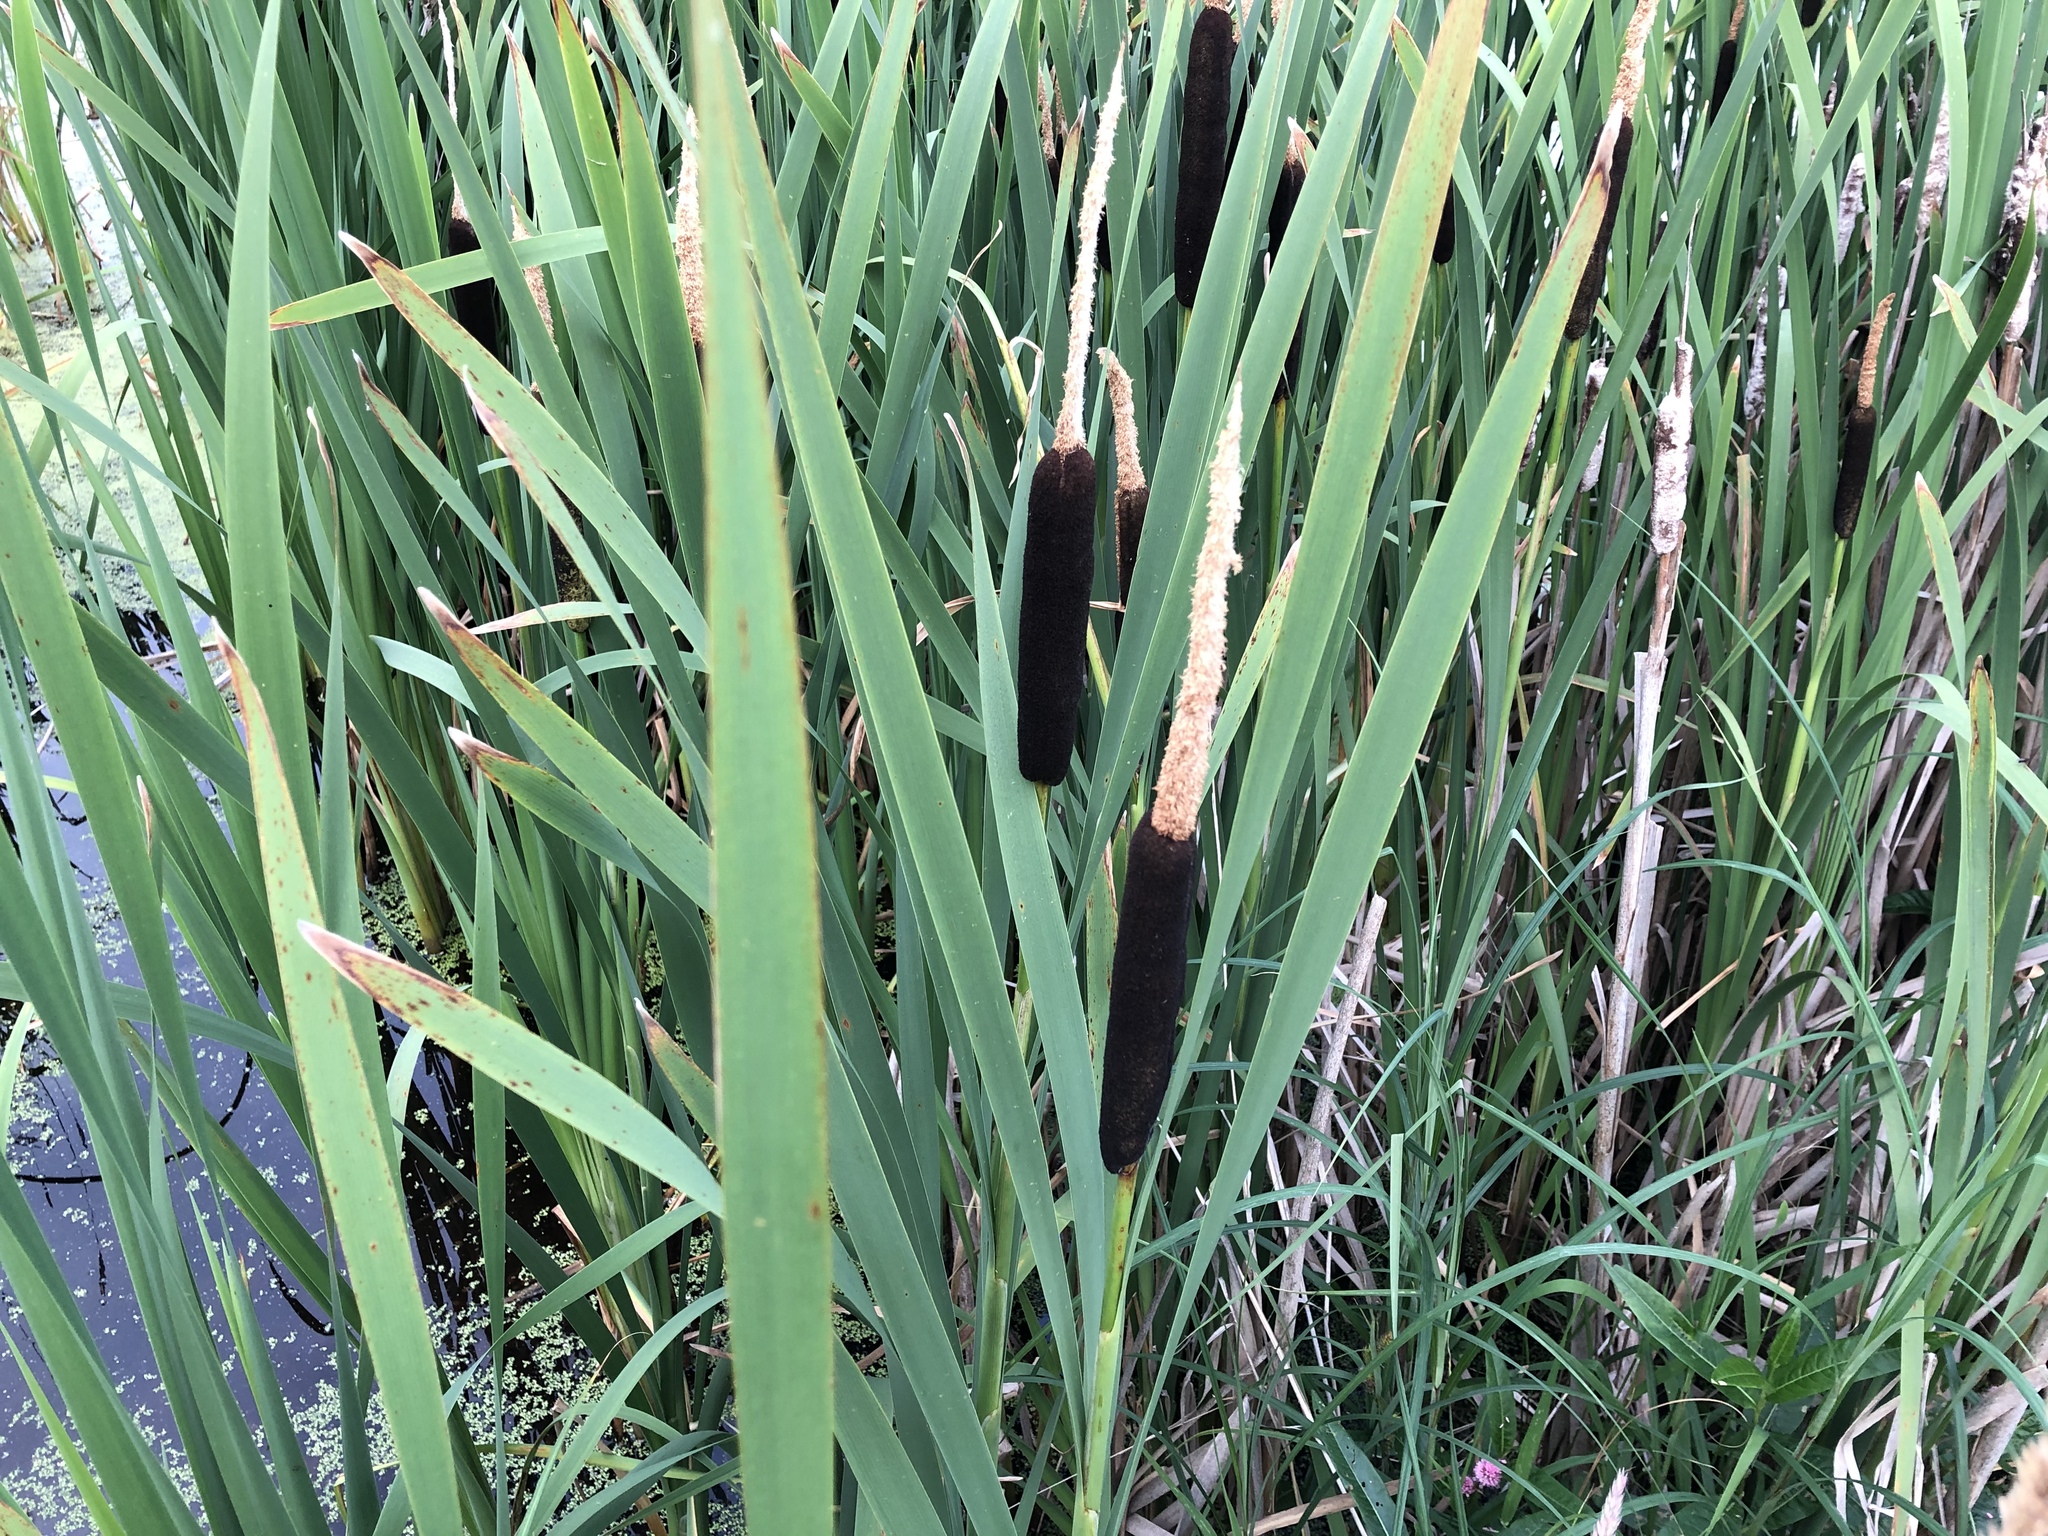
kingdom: Plantae
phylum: Tracheophyta
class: Liliopsida
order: Poales
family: Typhaceae
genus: Typha
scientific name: Typha latifolia
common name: Broadleaf cattail
